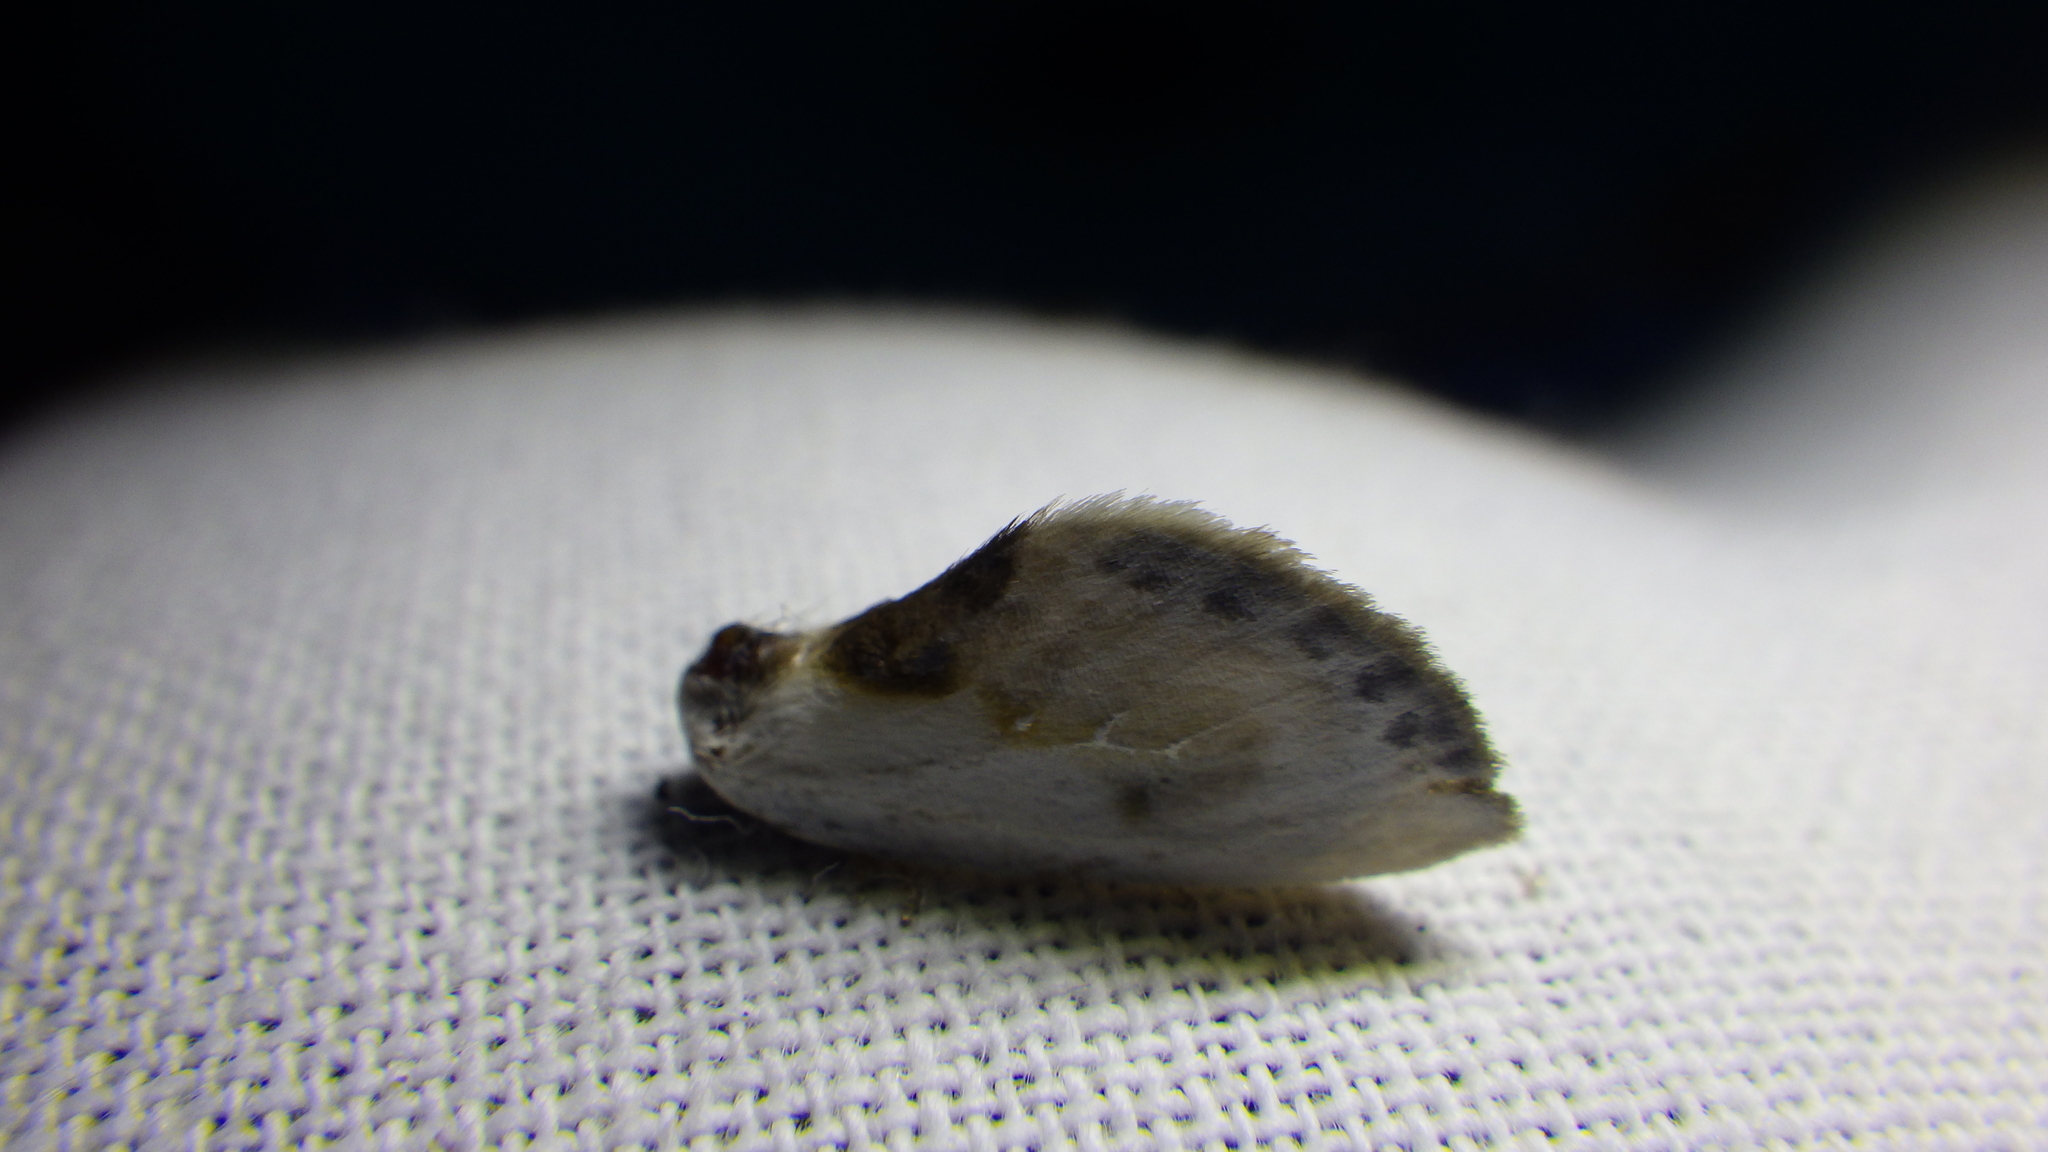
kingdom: Animalia
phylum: Arthropoda
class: Insecta
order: Lepidoptera
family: Drepanidae
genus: Cilix
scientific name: Cilix glaucata
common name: Chinese character
